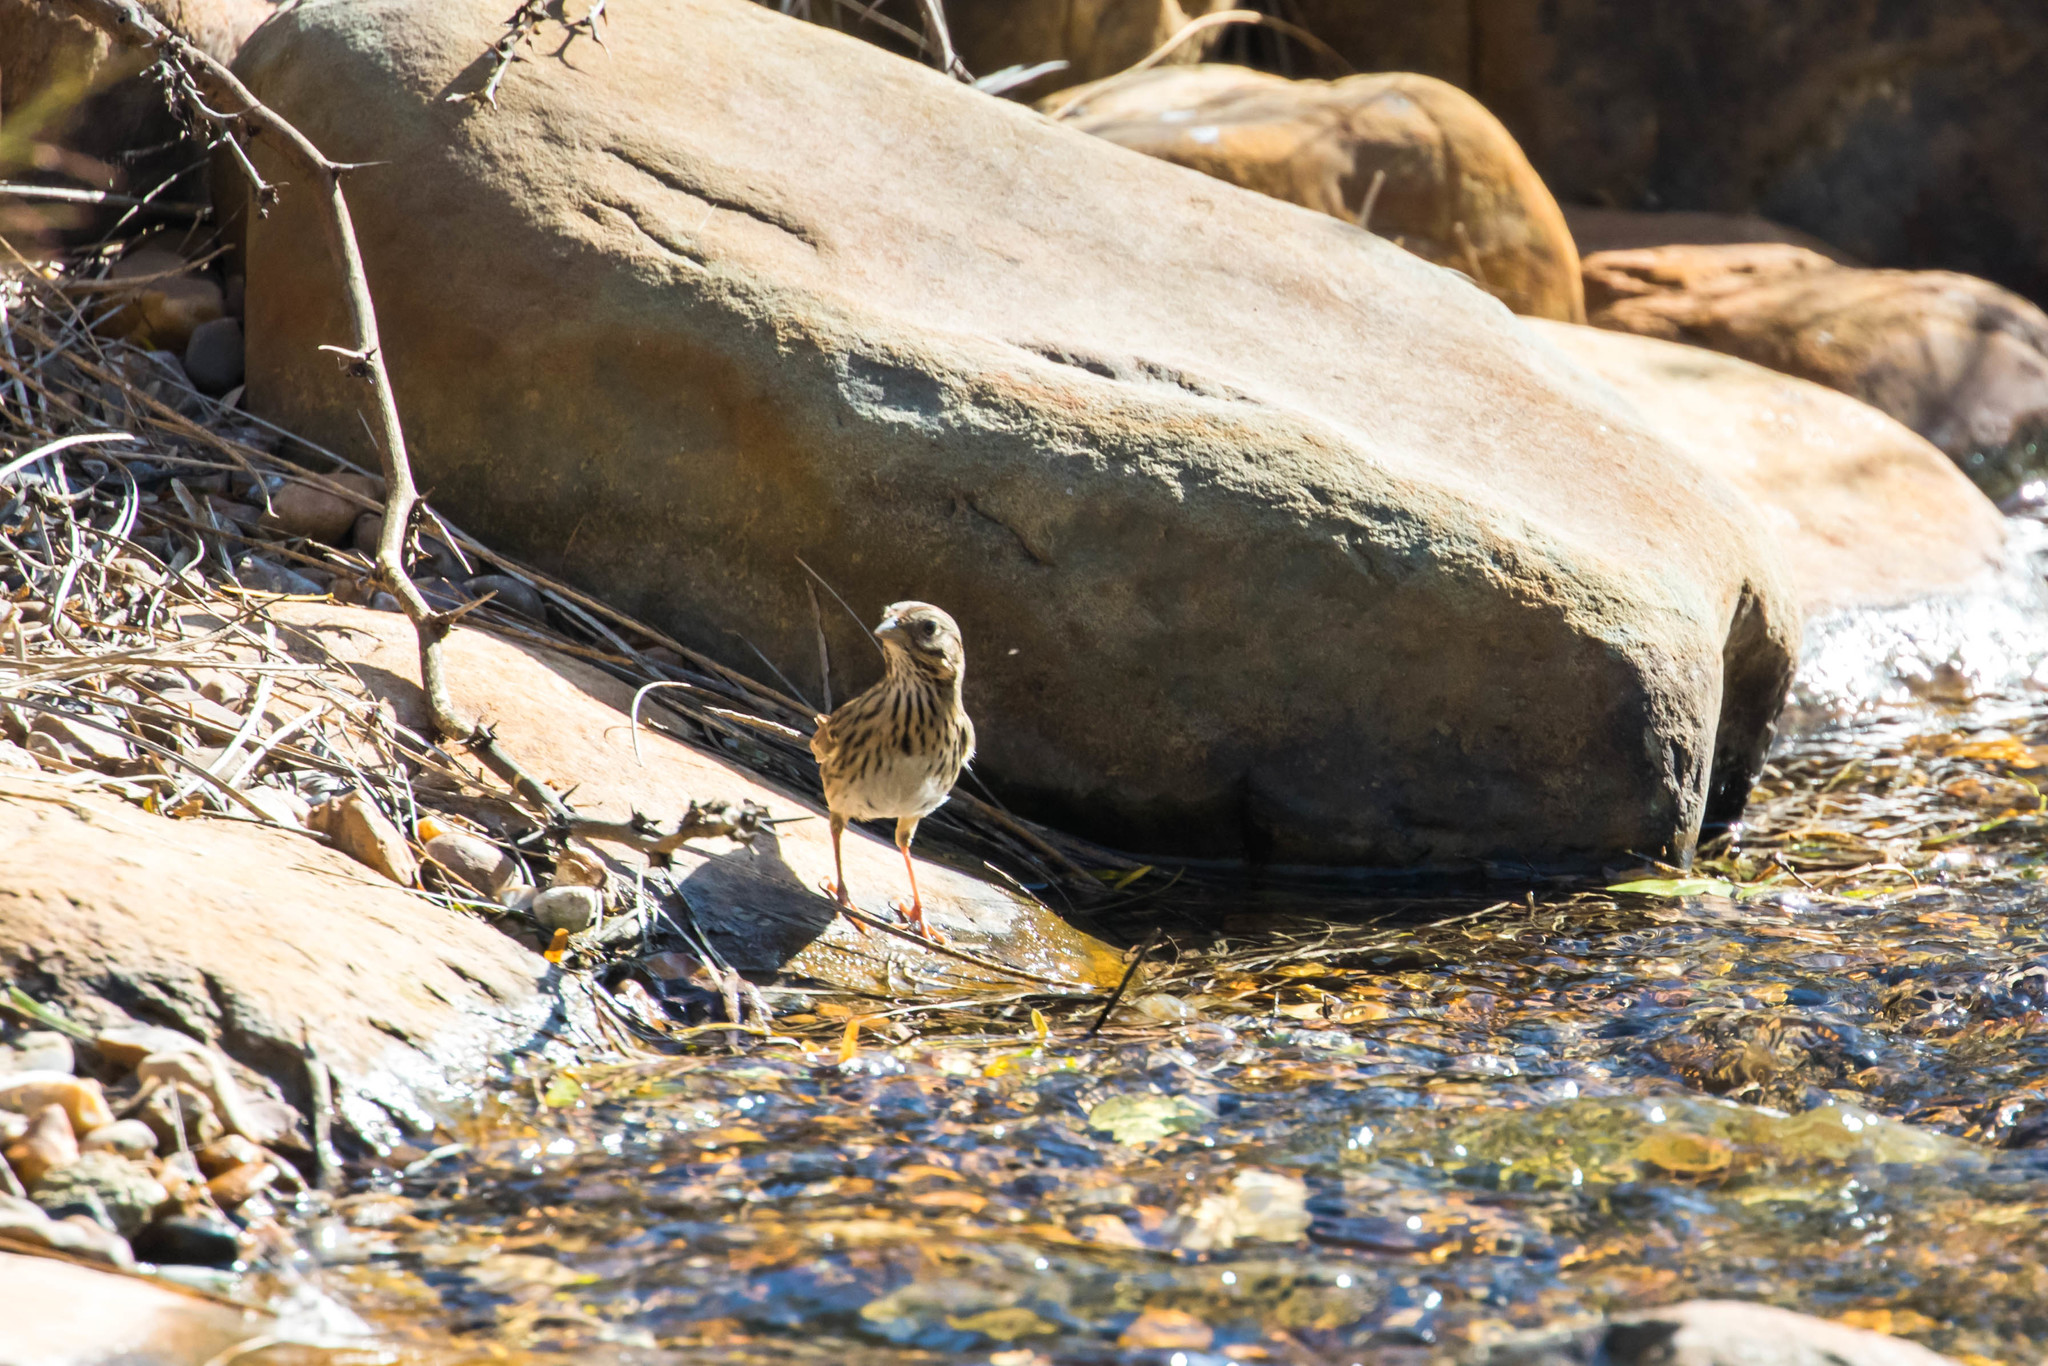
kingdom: Animalia
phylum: Chordata
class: Aves
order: Passeriformes
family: Passerellidae
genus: Melospiza
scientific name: Melospiza lincolnii
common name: Lincoln's sparrow
